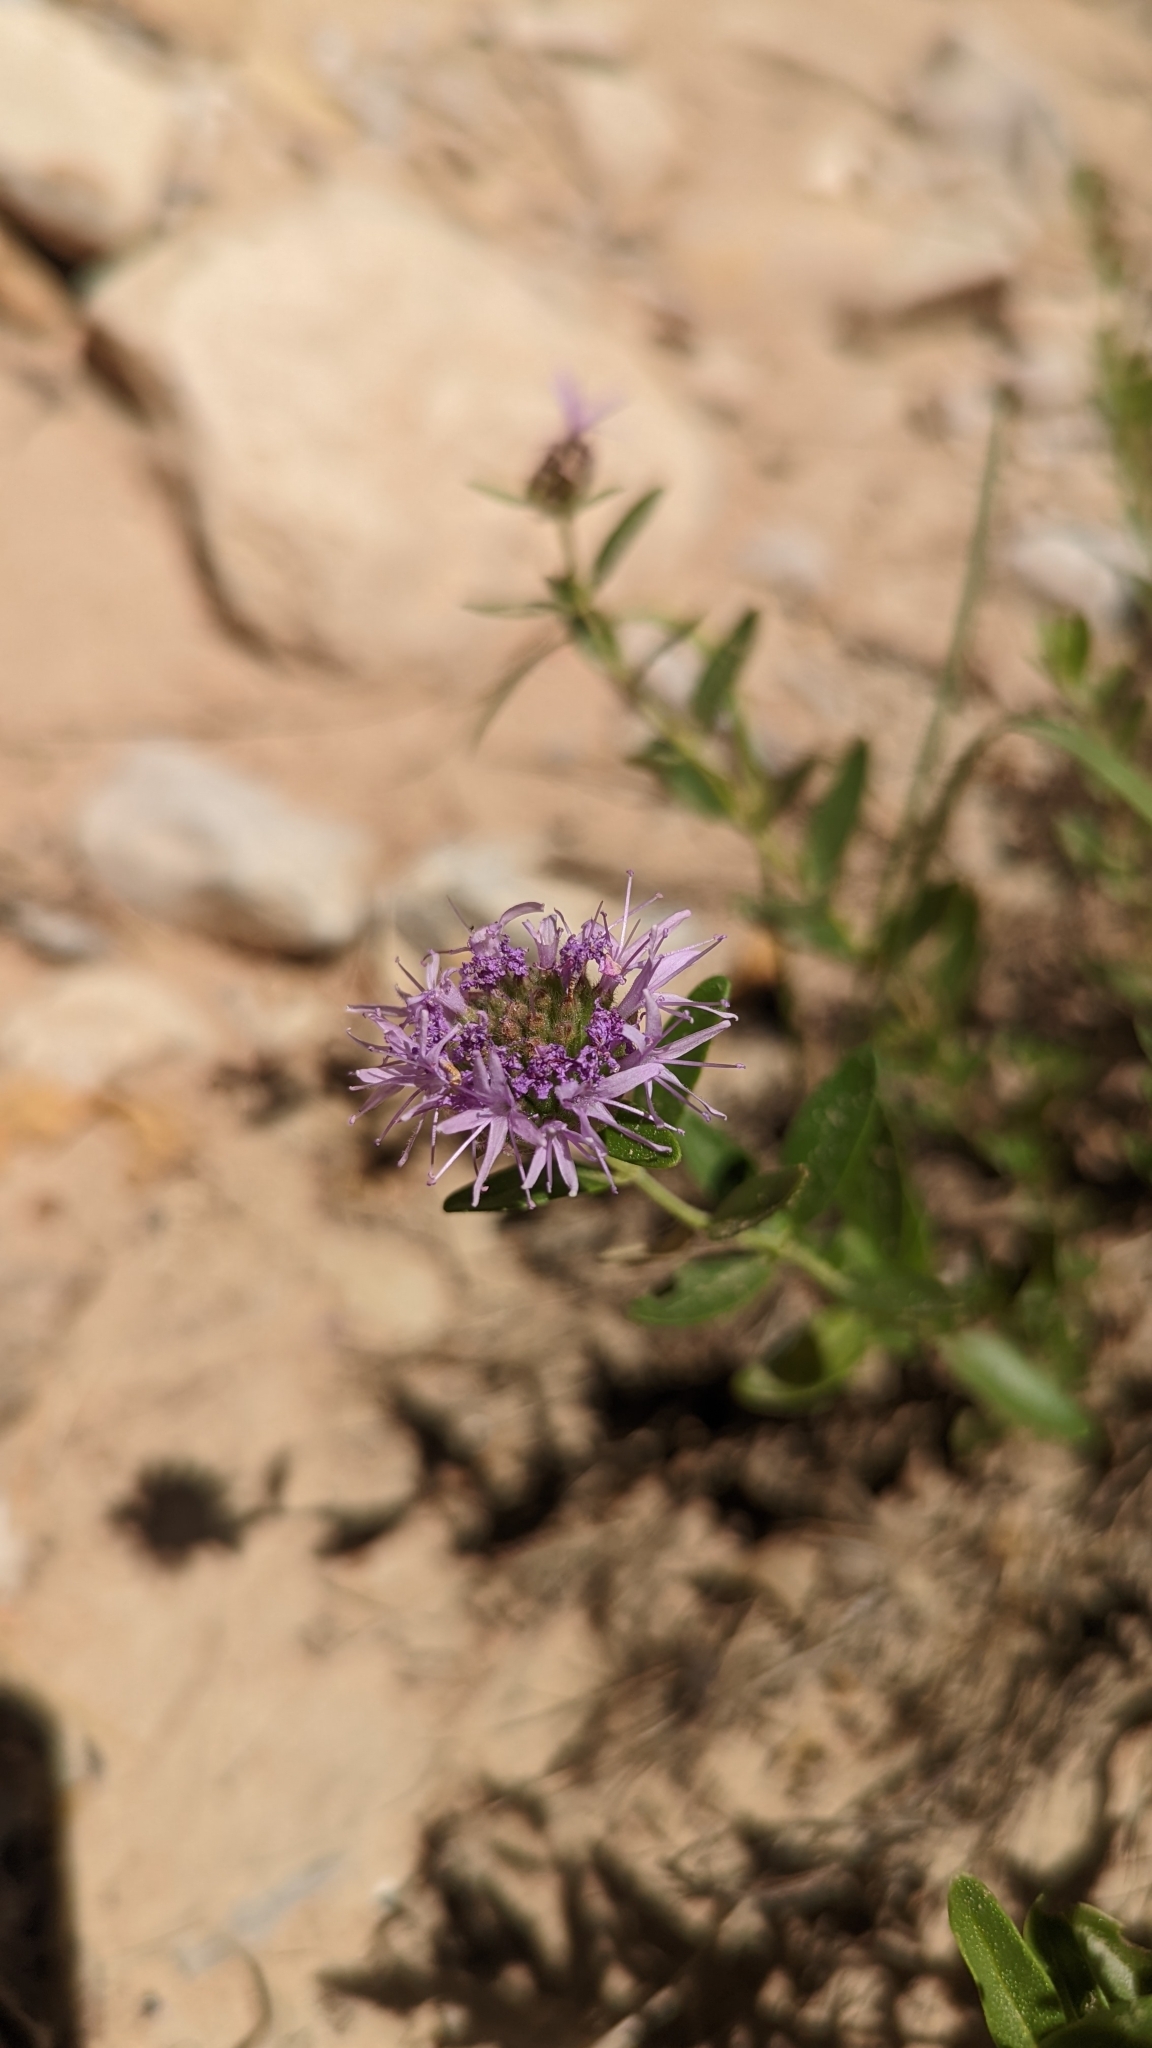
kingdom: Plantae
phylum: Tracheophyta
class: Magnoliopsida
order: Lamiales
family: Lamiaceae
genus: Monardella
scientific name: Monardella odoratissima
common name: Pacific monardella
